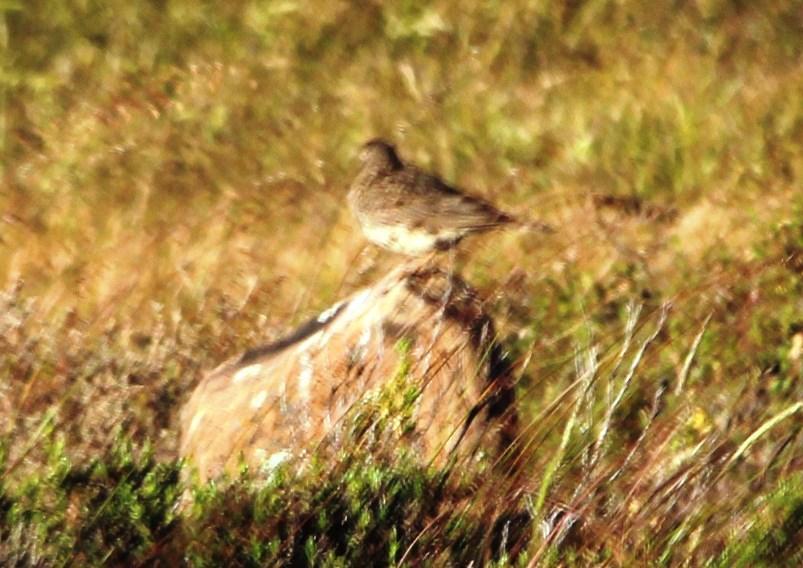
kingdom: Animalia
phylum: Chordata
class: Aves
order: Passeriformes
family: Alaudidae
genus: Galerida
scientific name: Galerida magnirostris
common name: Large-billed lark
